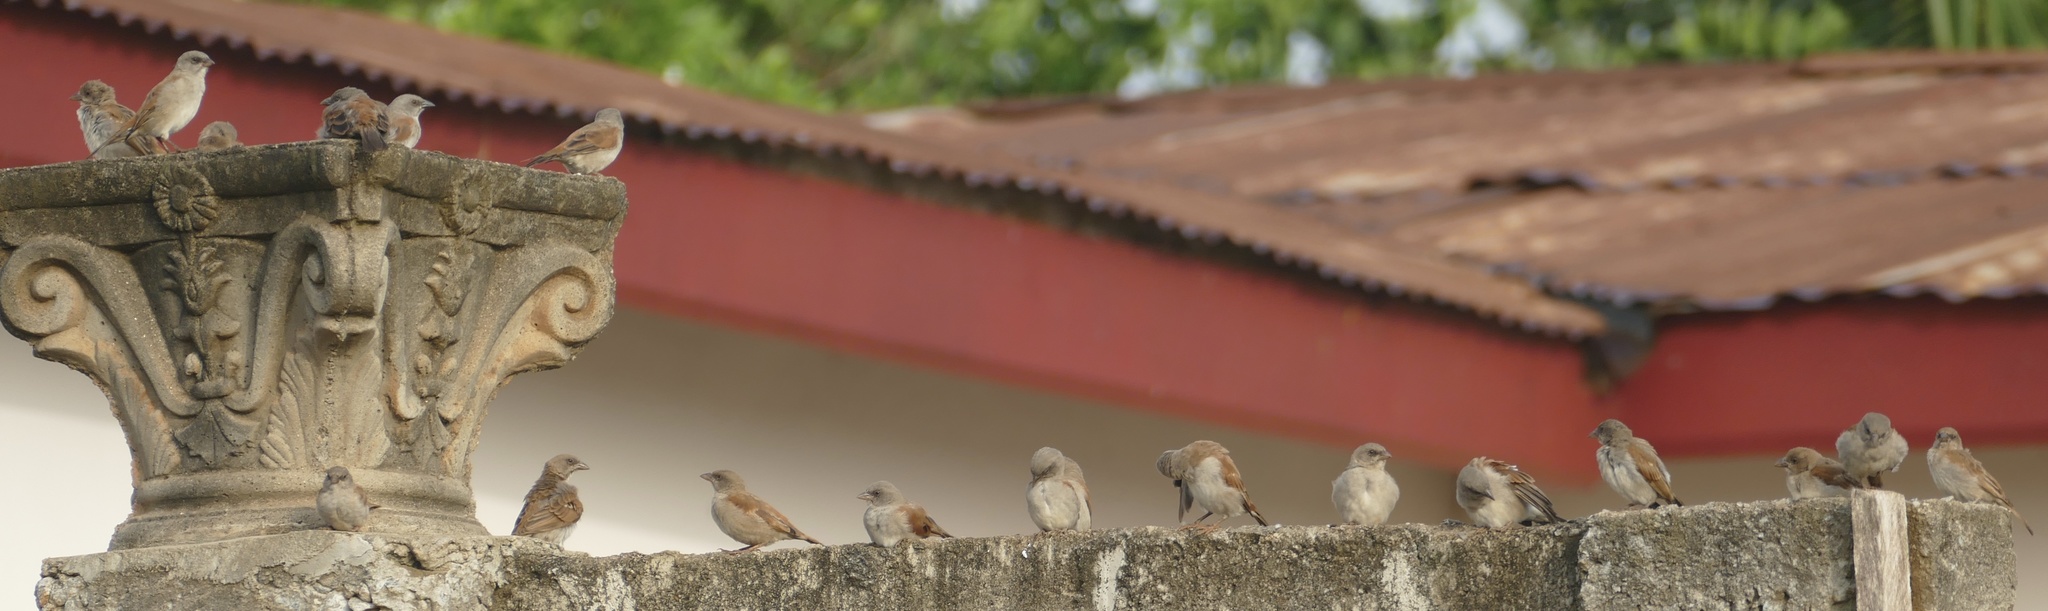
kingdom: Animalia
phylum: Chordata
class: Aves
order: Passeriformes
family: Passeridae
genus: Passer
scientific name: Passer griseus
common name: Northern grey-headed sparrow
